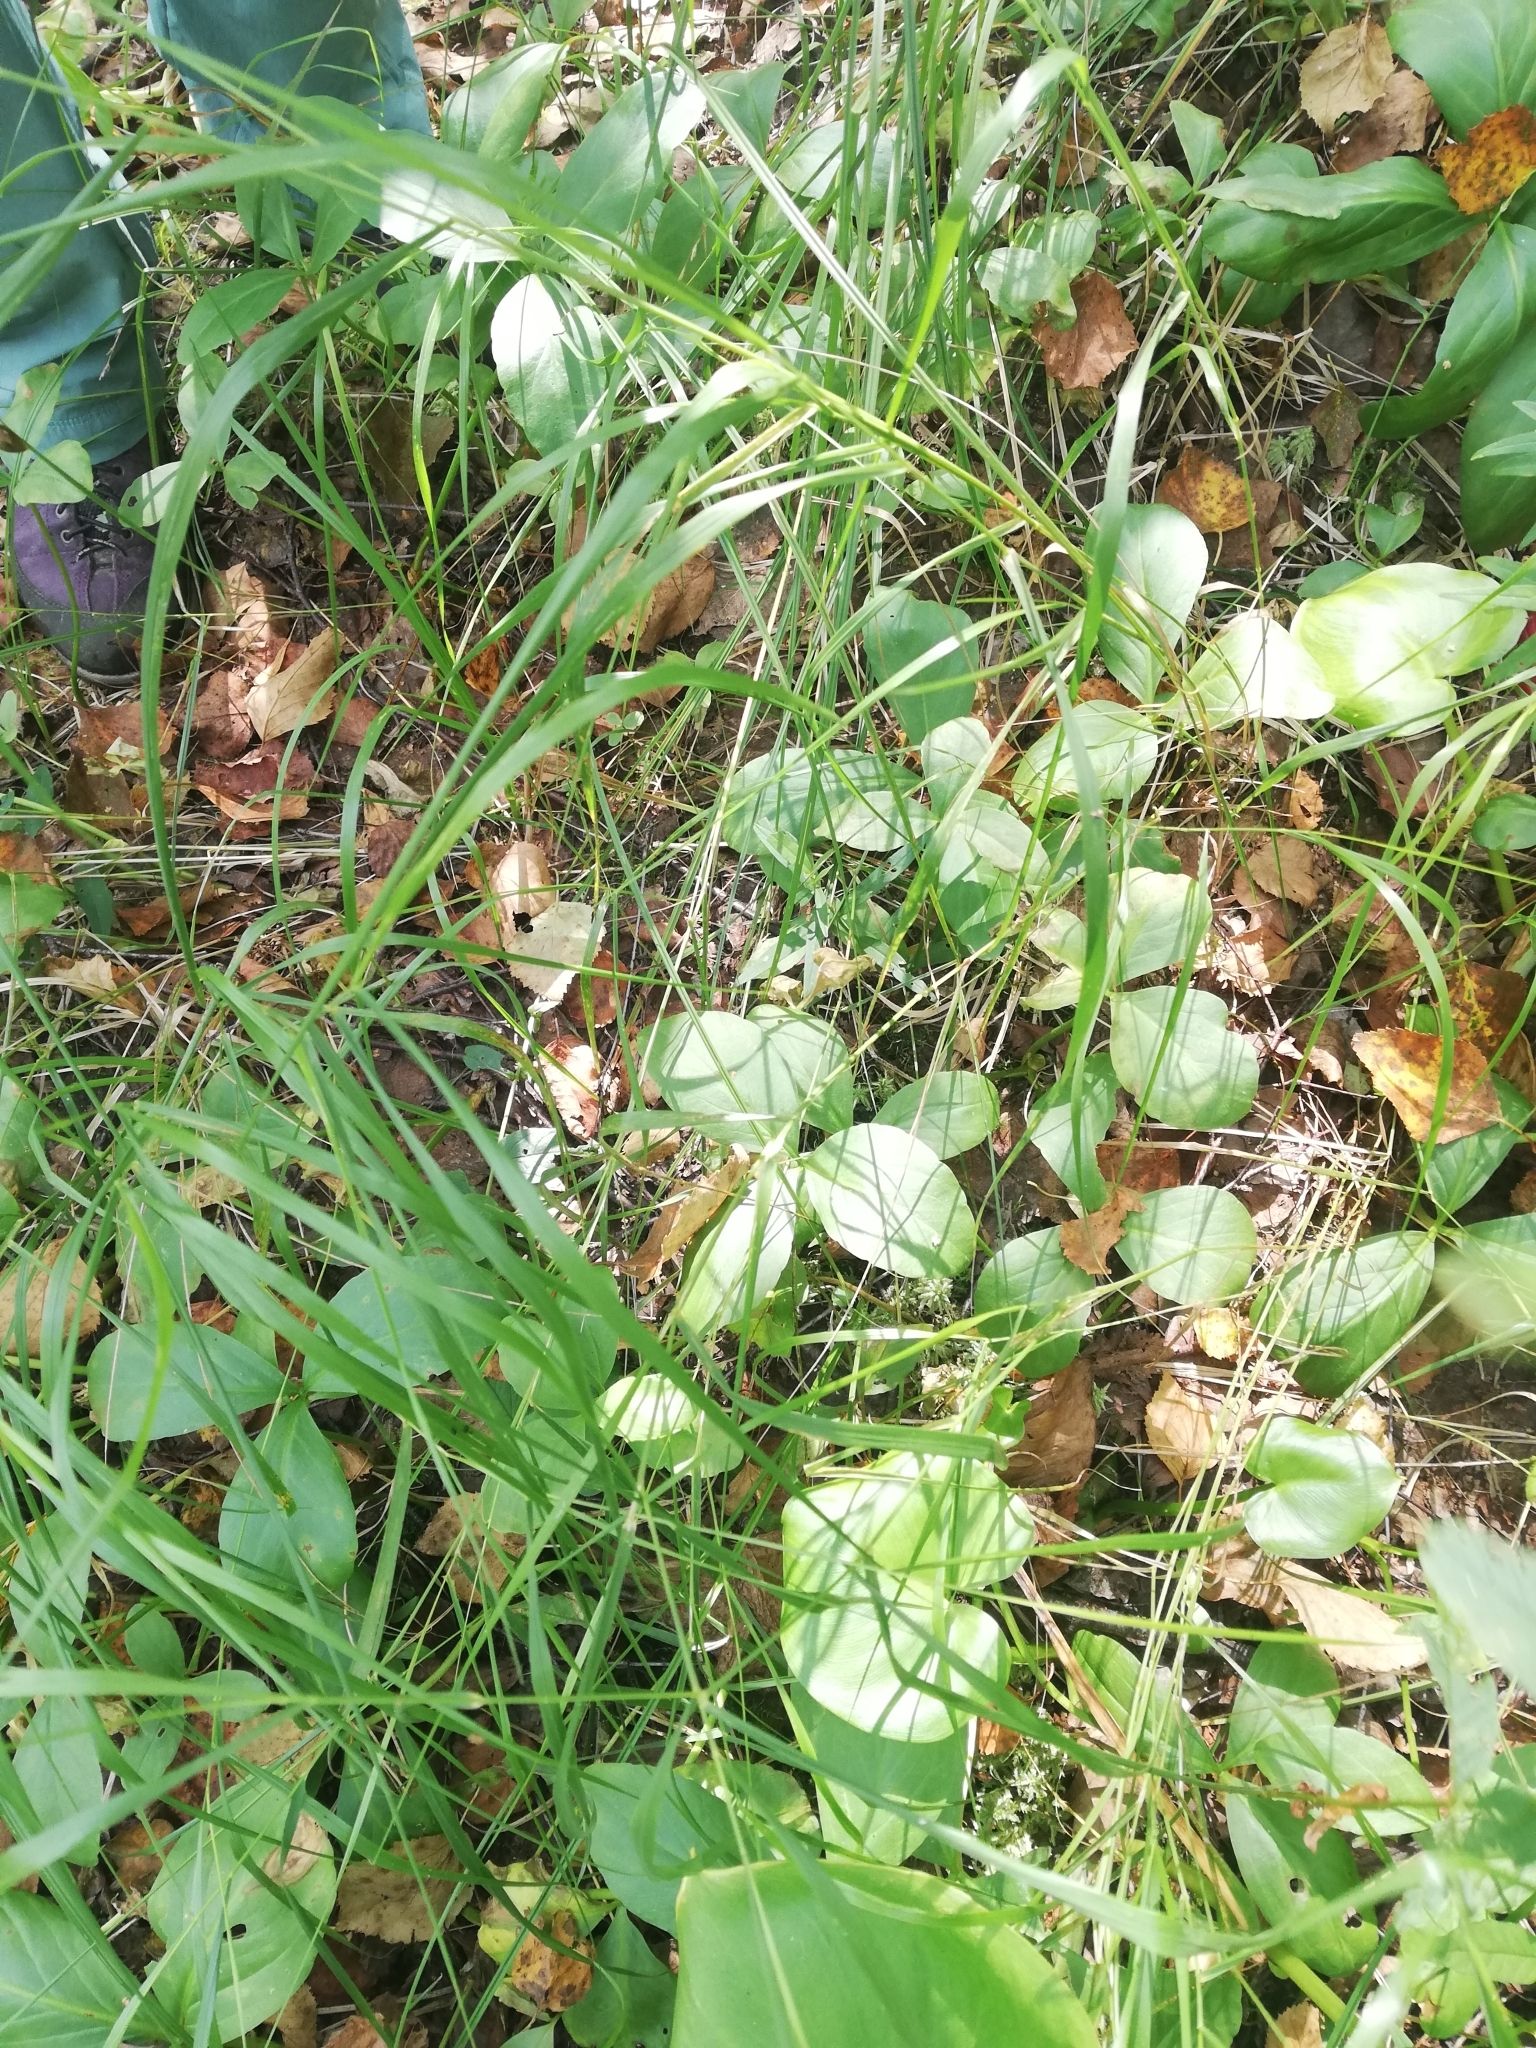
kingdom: Plantae
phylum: Tracheophyta
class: Magnoliopsida
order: Asterales
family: Menyanthaceae
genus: Menyanthes
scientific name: Menyanthes trifoliata
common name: Bogbean
